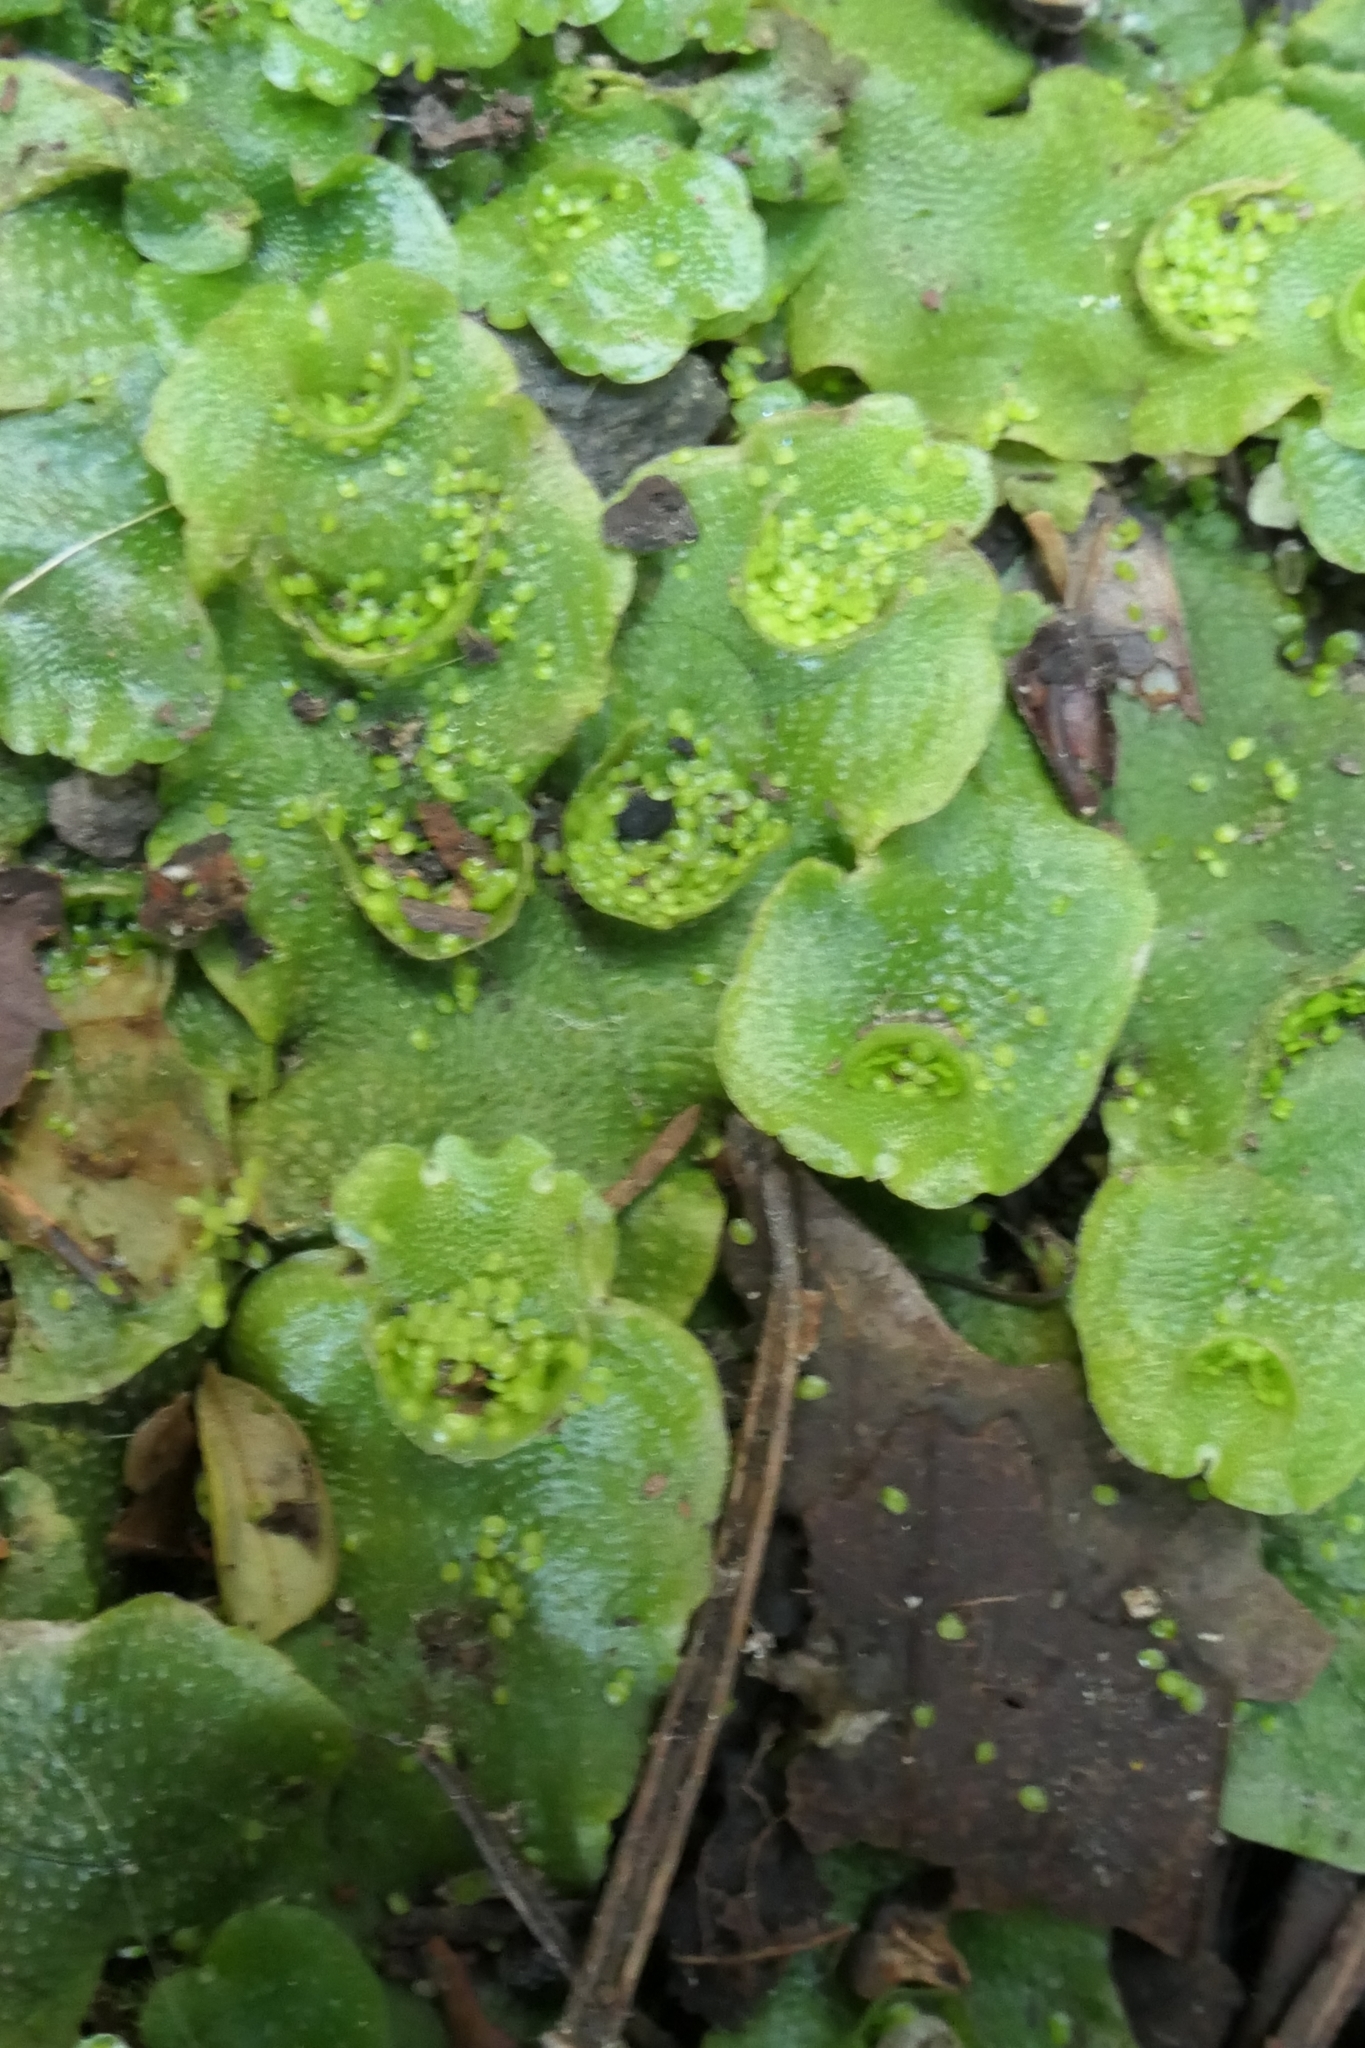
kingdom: Plantae
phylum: Marchantiophyta
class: Marchantiopsida
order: Lunulariales
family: Lunulariaceae
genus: Lunularia
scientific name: Lunularia cruciata
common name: Crescent-cup liverwort
